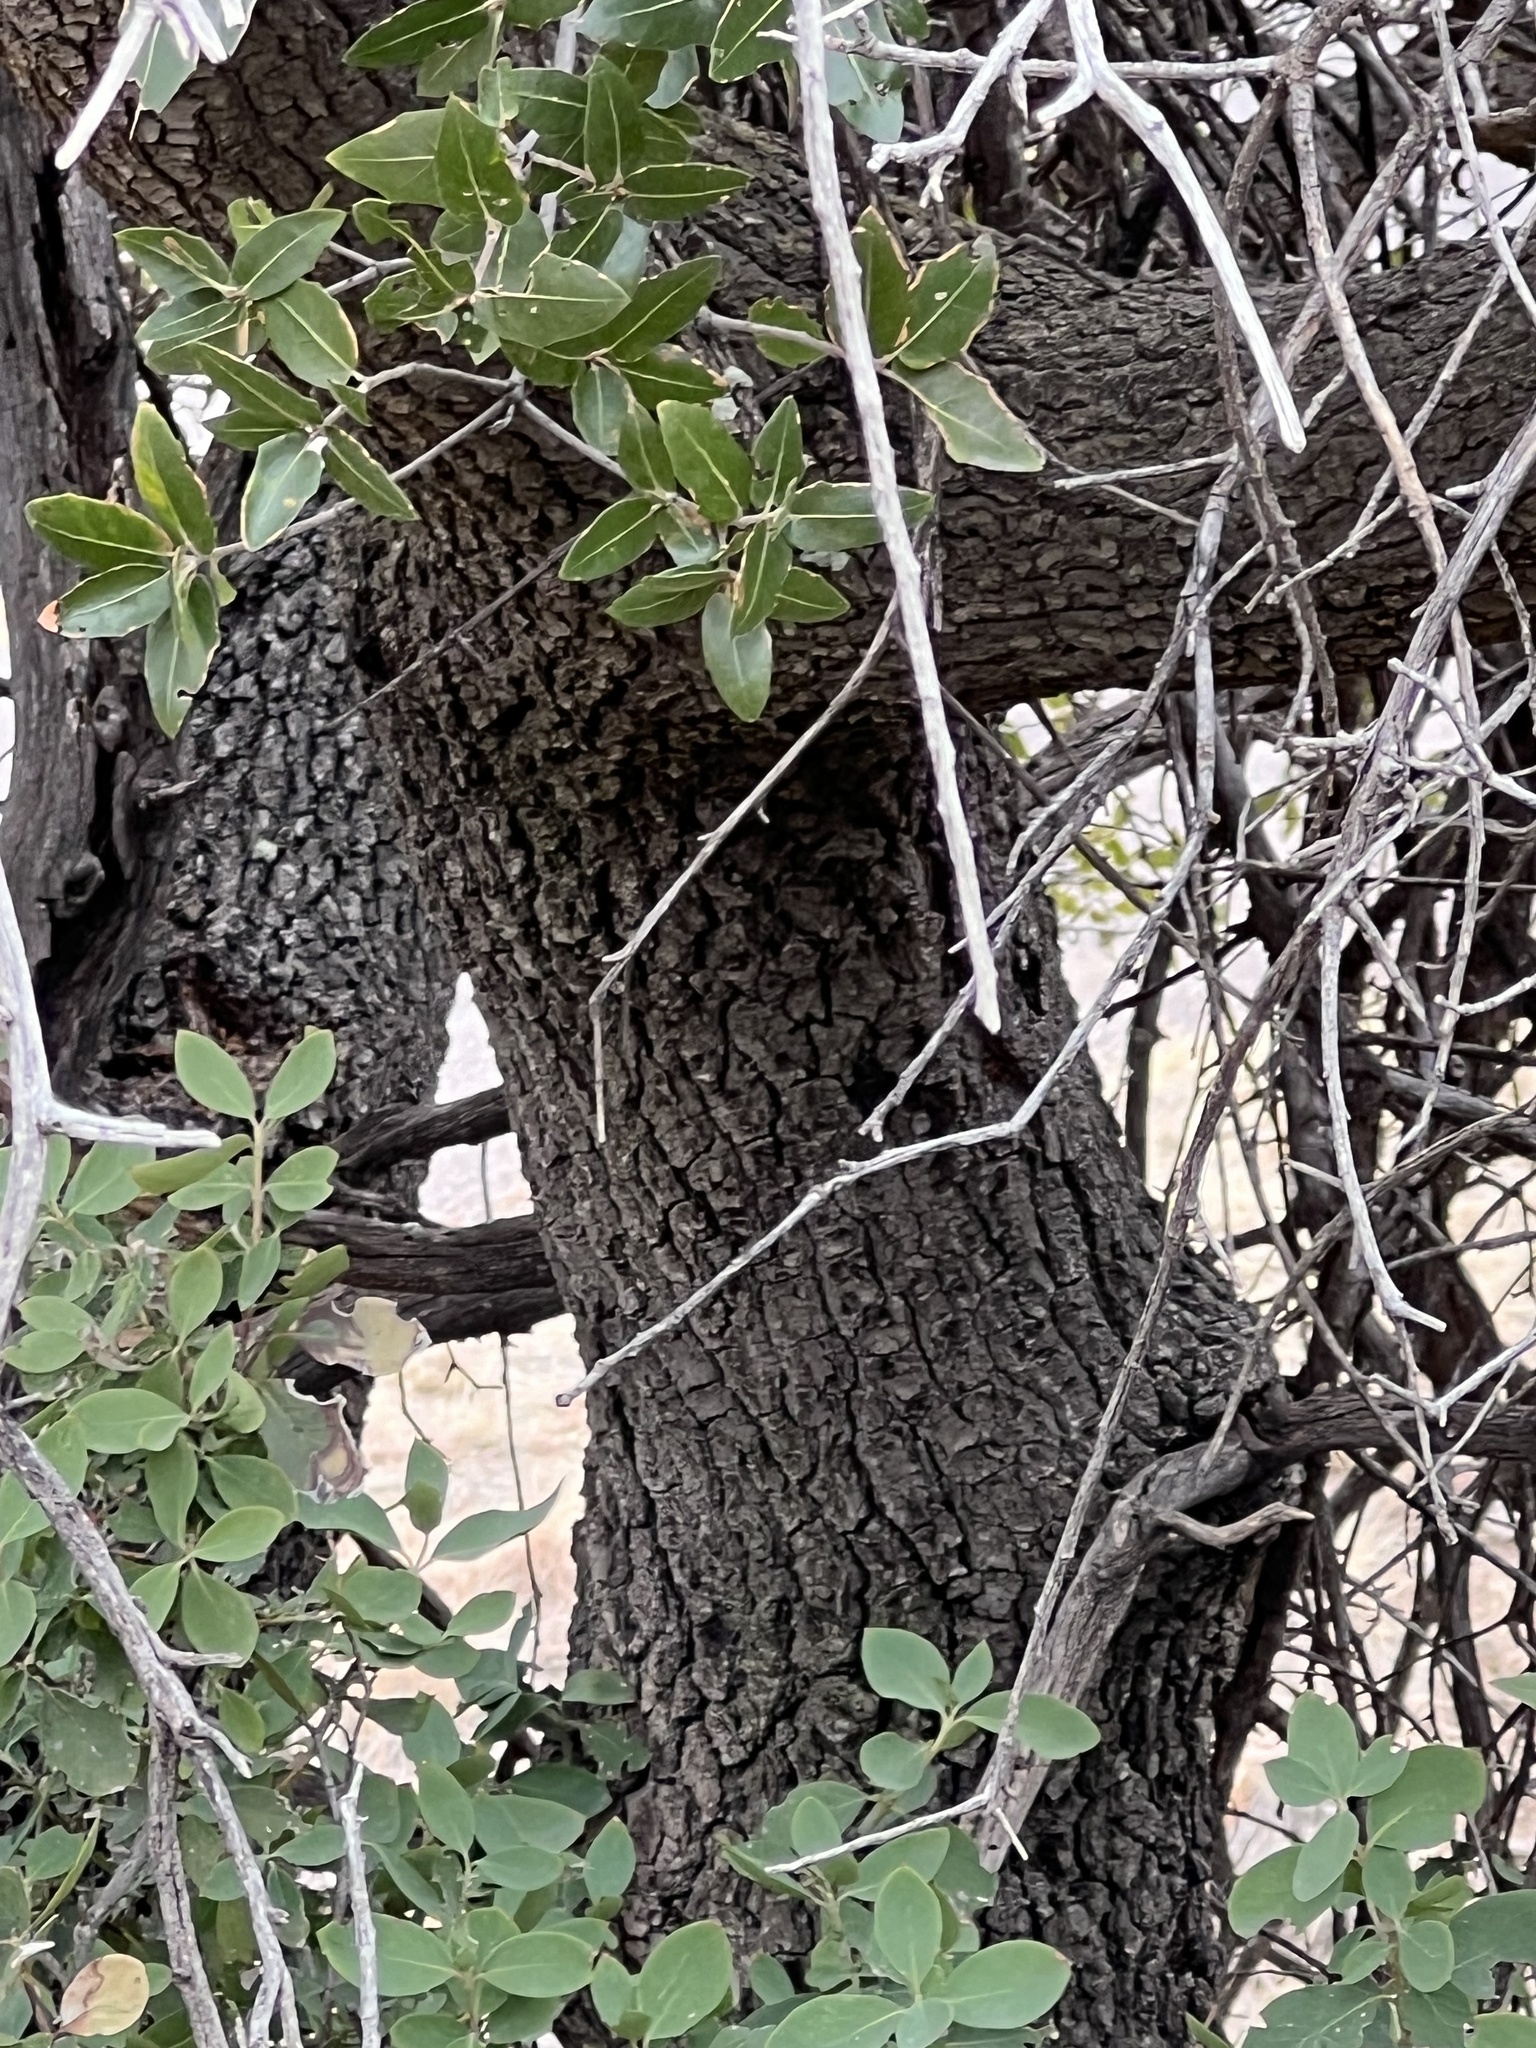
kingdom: Plantae
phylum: Tracheophyta
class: Magnoliopsida
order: Fagales
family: Fagaceae
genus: Quercus
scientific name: Quercus emoryi
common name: Emory oak
